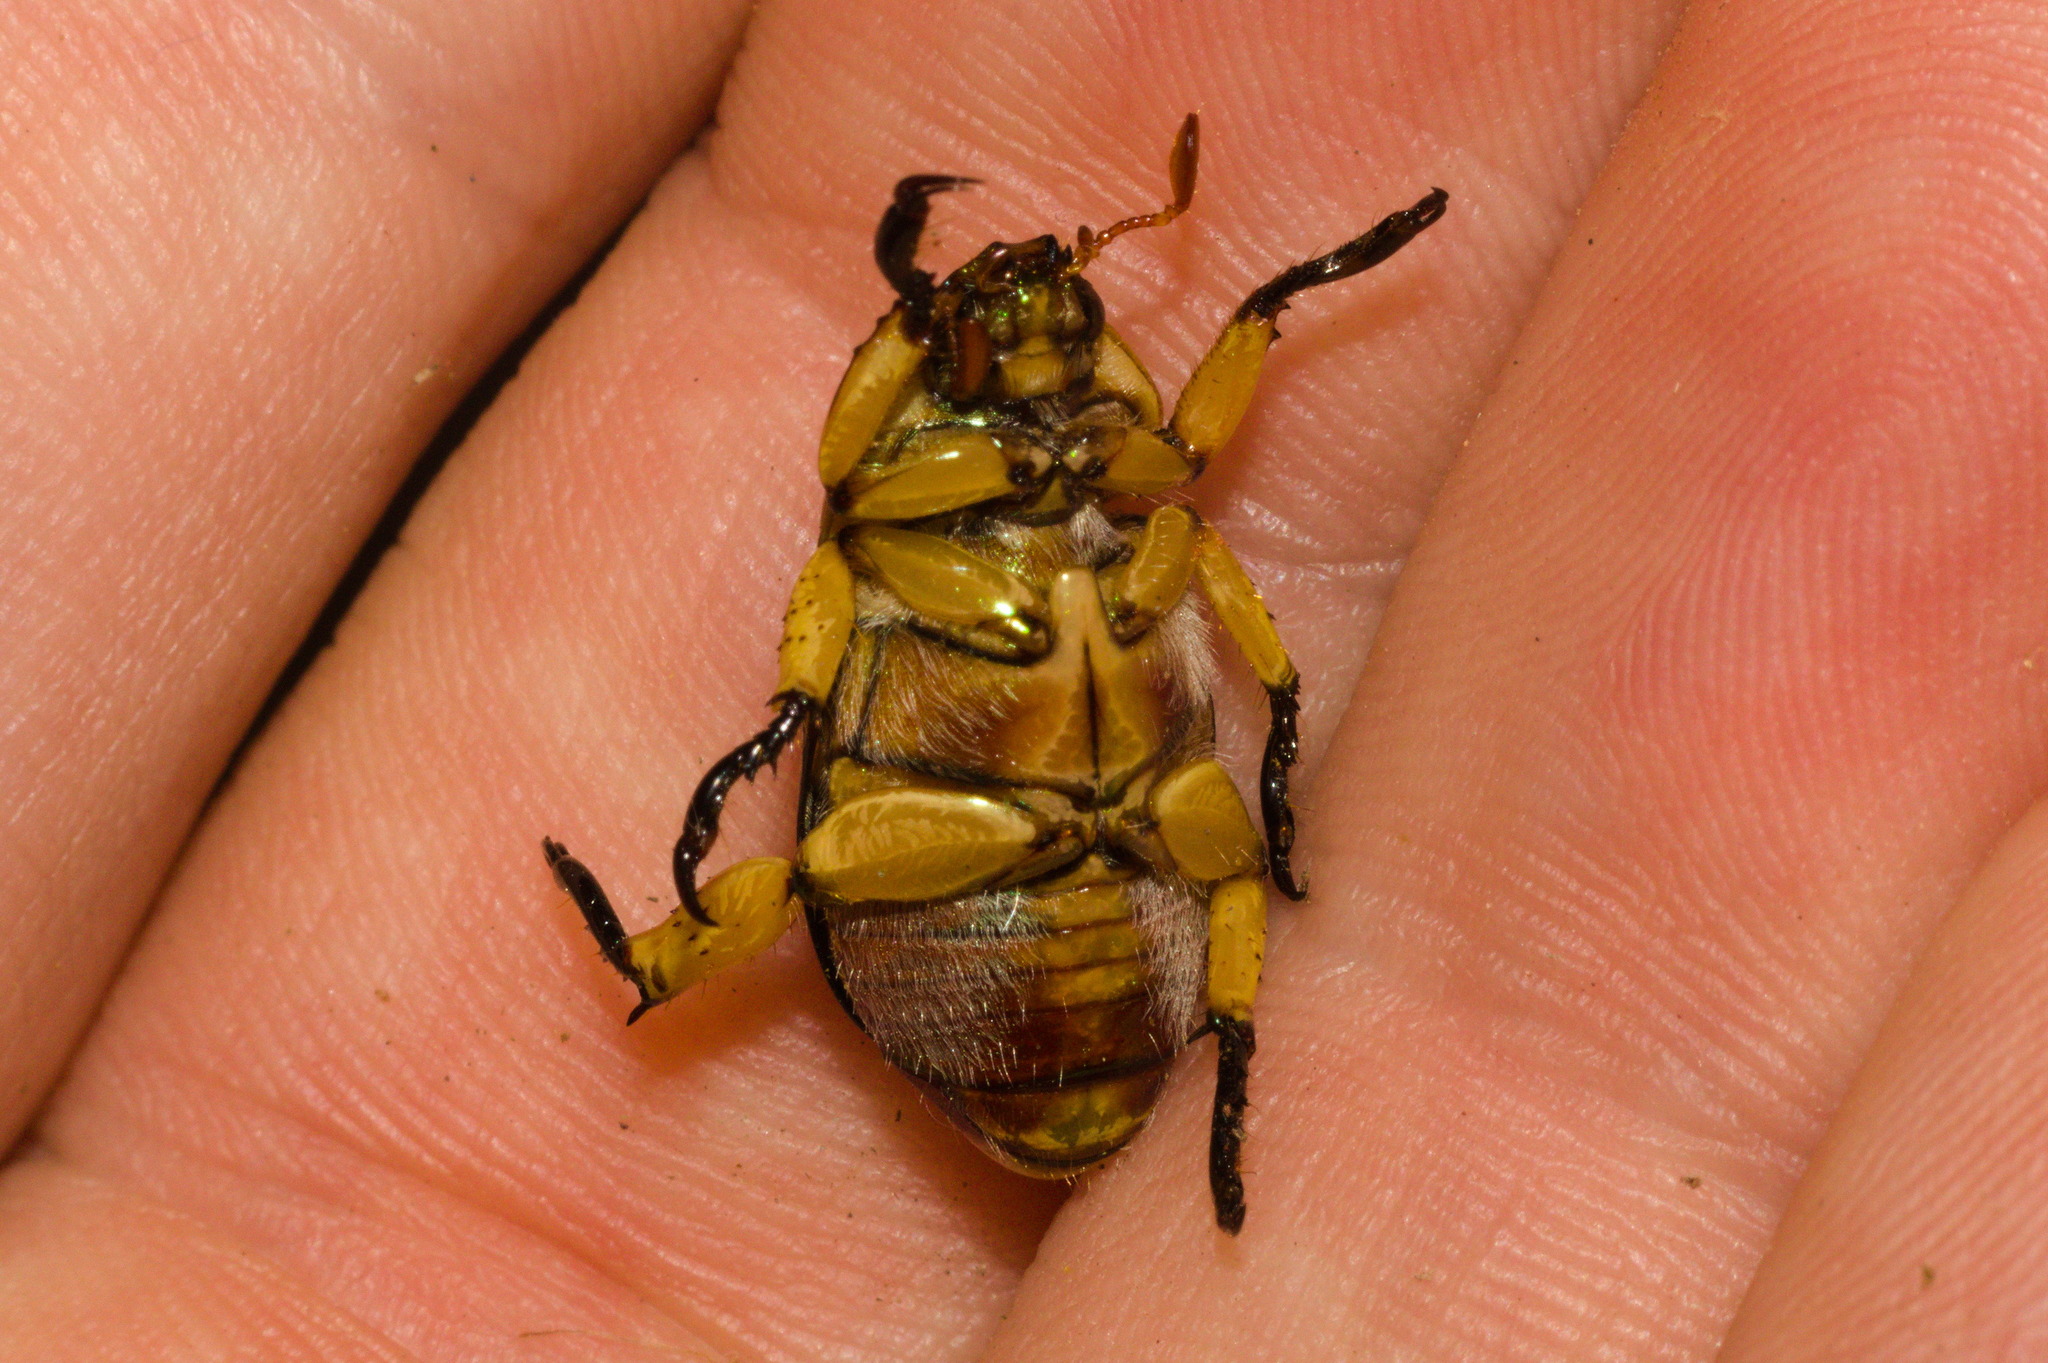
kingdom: Animalia
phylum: Arthropoda
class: Insecta
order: Coleoptera
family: Scarabaeidae
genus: Pelidnota
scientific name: Pelidnota pulchella
